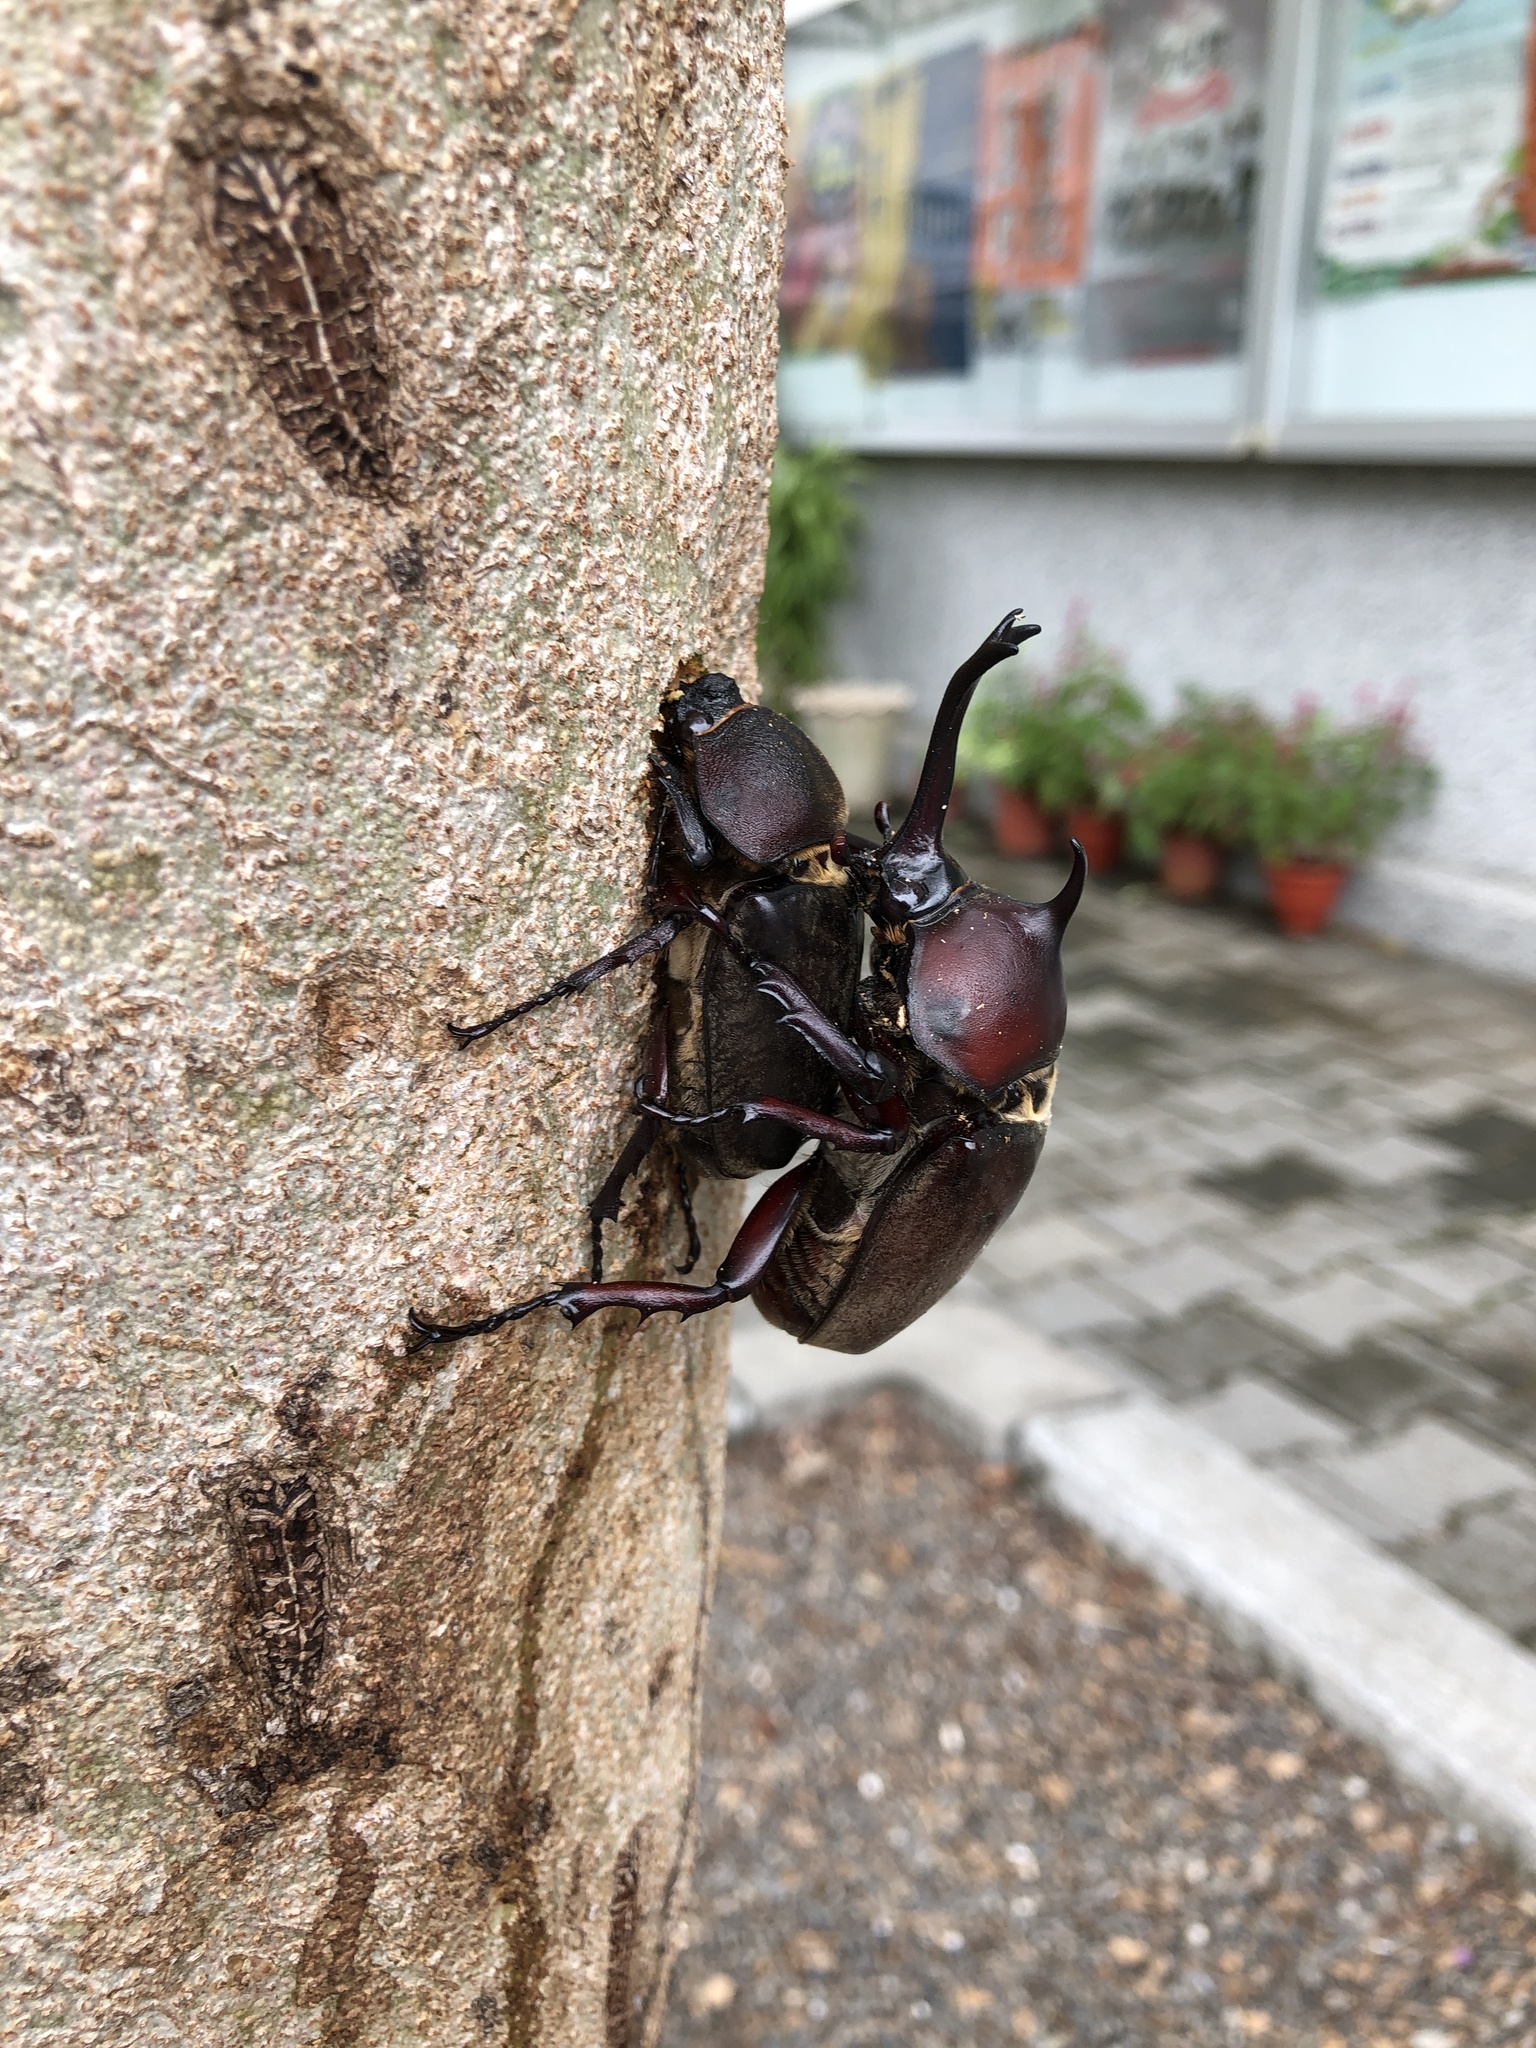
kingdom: Animalia
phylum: Arthropoda
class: Insecta
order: Coleoptera
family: Scarabaeidae
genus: Trypoxylus
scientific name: Trypoxylus dichotomus
